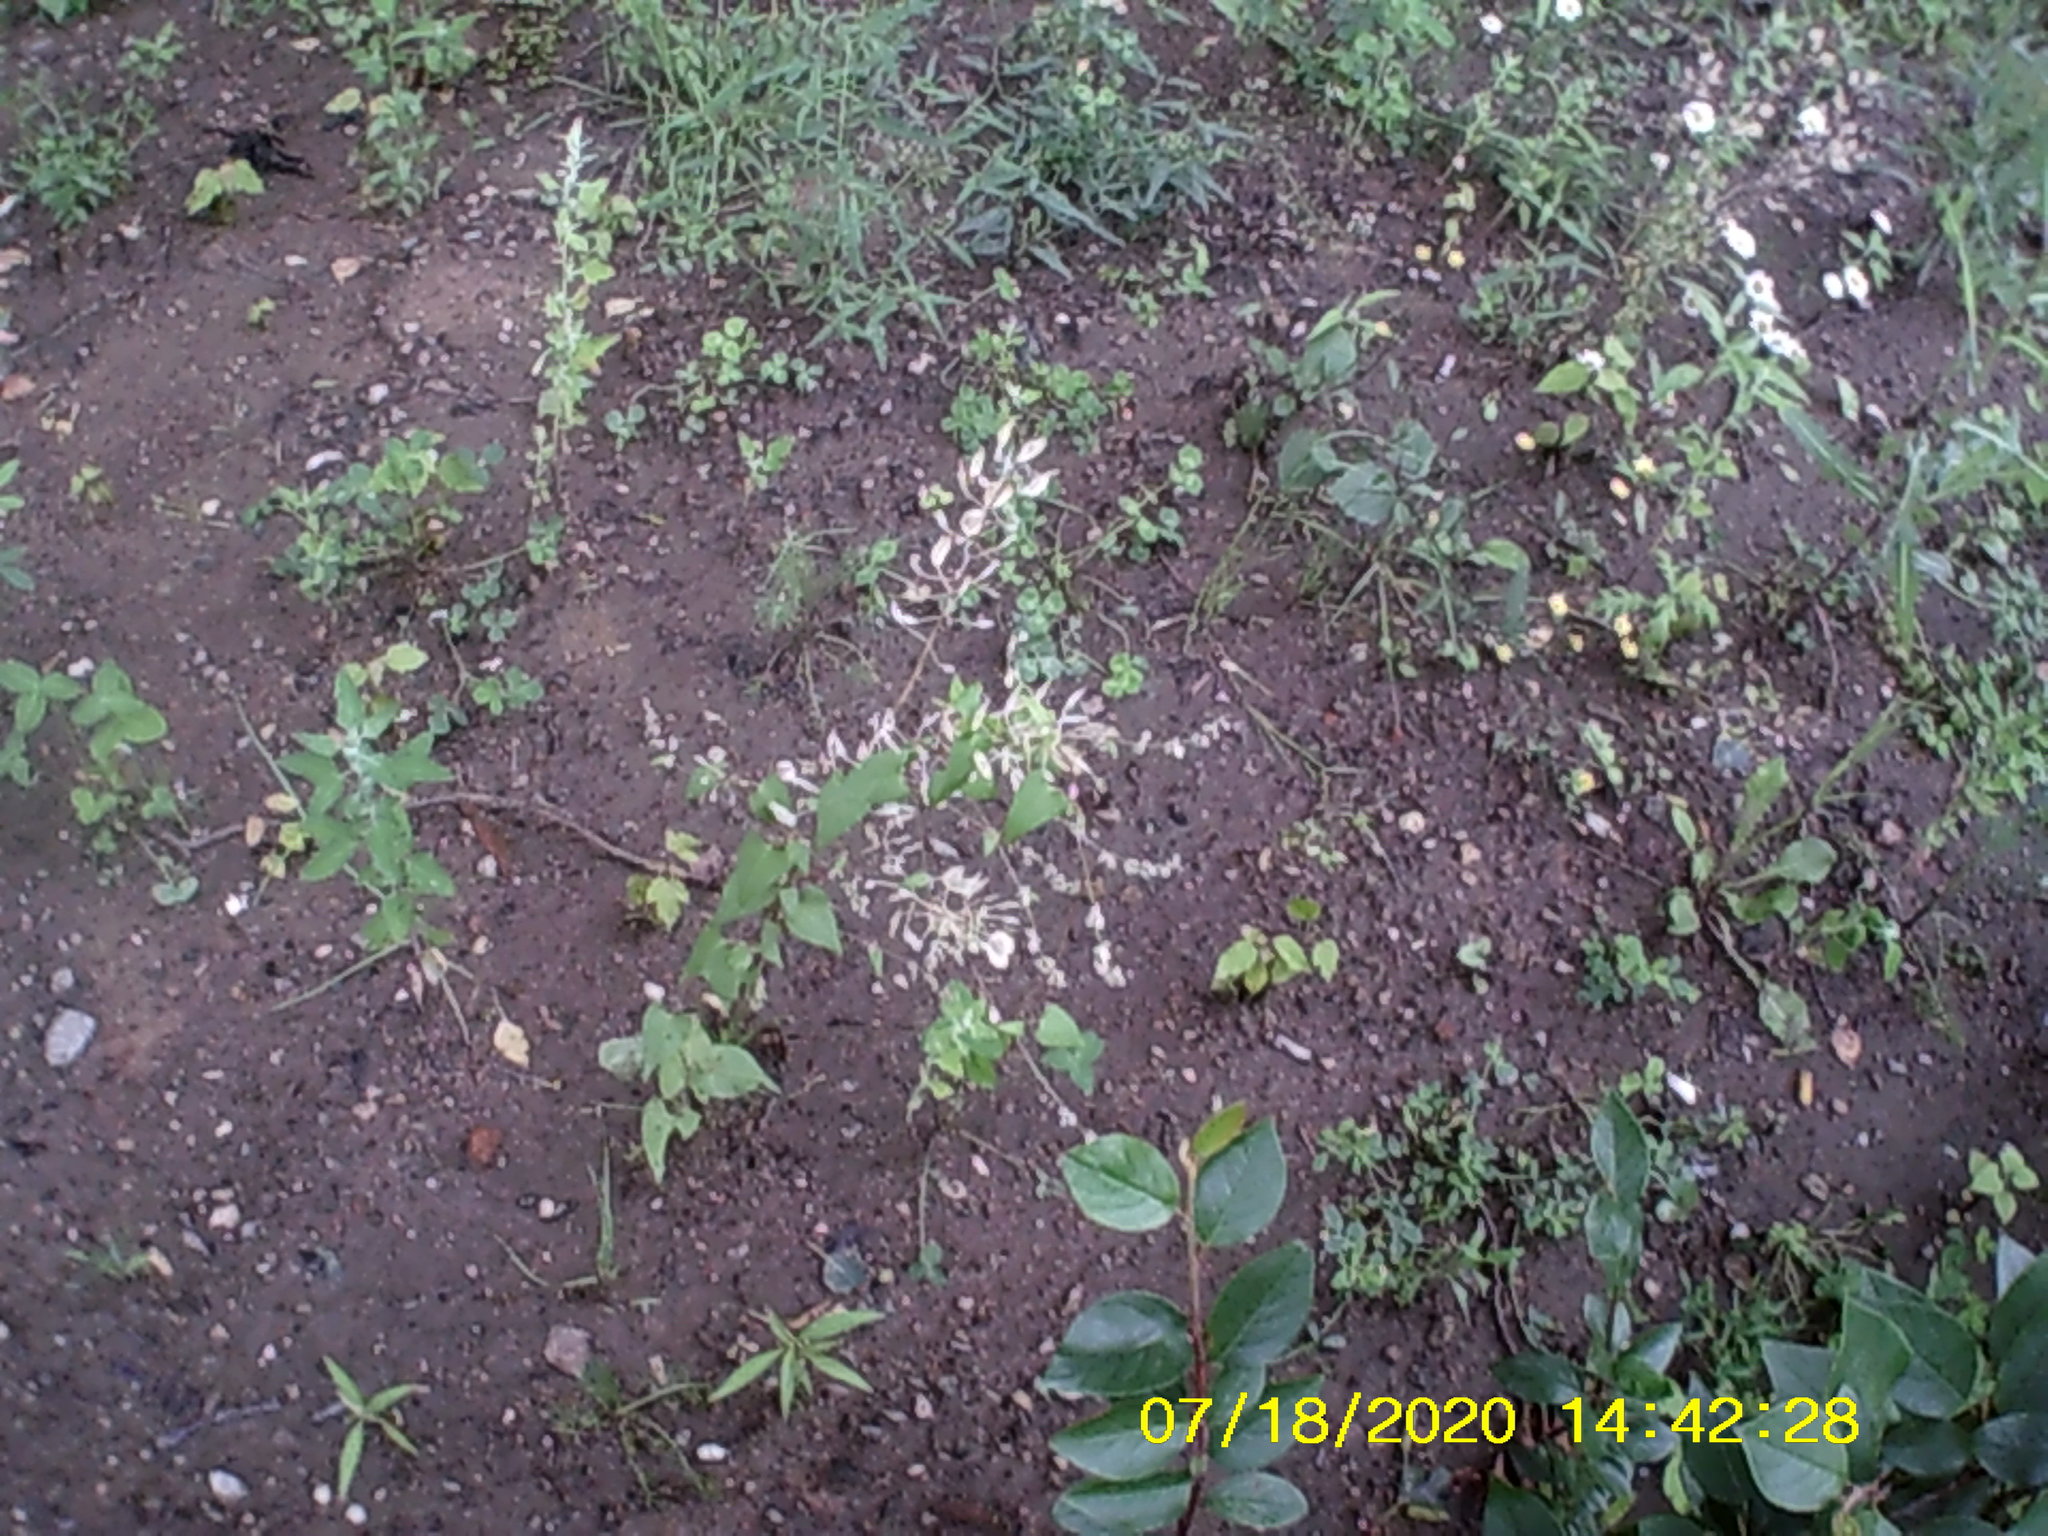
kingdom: Plantae
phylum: Tracheophyta
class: Magnoliopsida
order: Brassicales
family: Brassicaceae
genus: Thlaspi
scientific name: Thlaspi arvense
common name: Field pennycress
